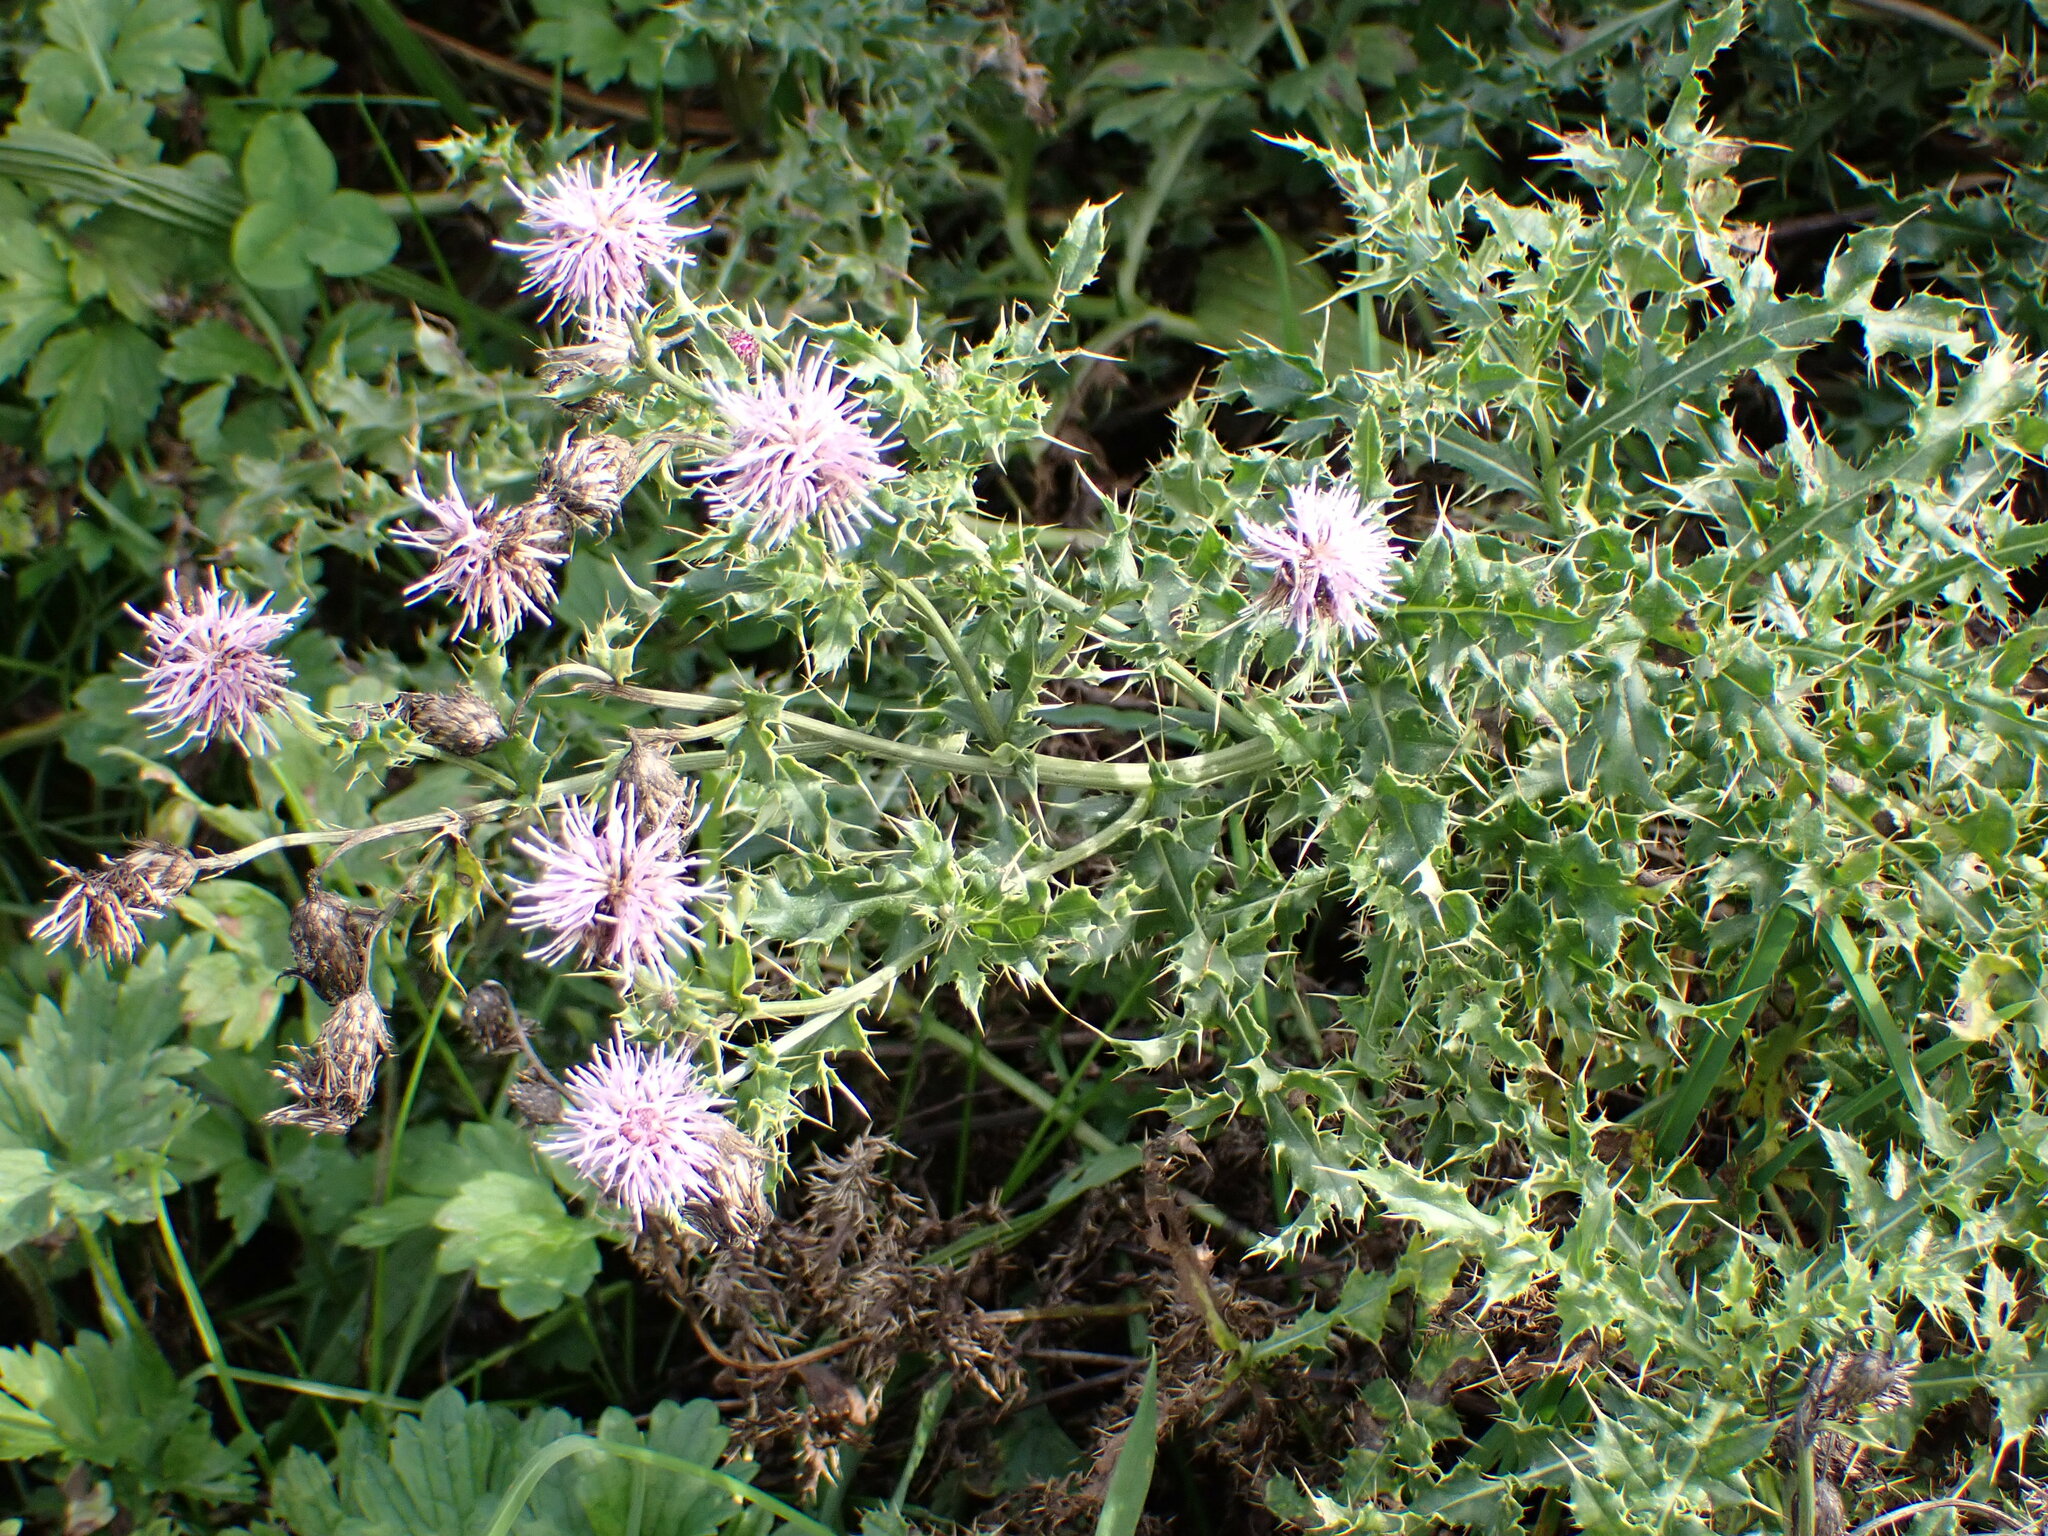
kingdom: Plantae
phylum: Tracheophyta
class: Magnoliopsida
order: Asterales
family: Asteraceae
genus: Cirsium
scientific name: Cirsium arvense
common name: Creeping thistle
